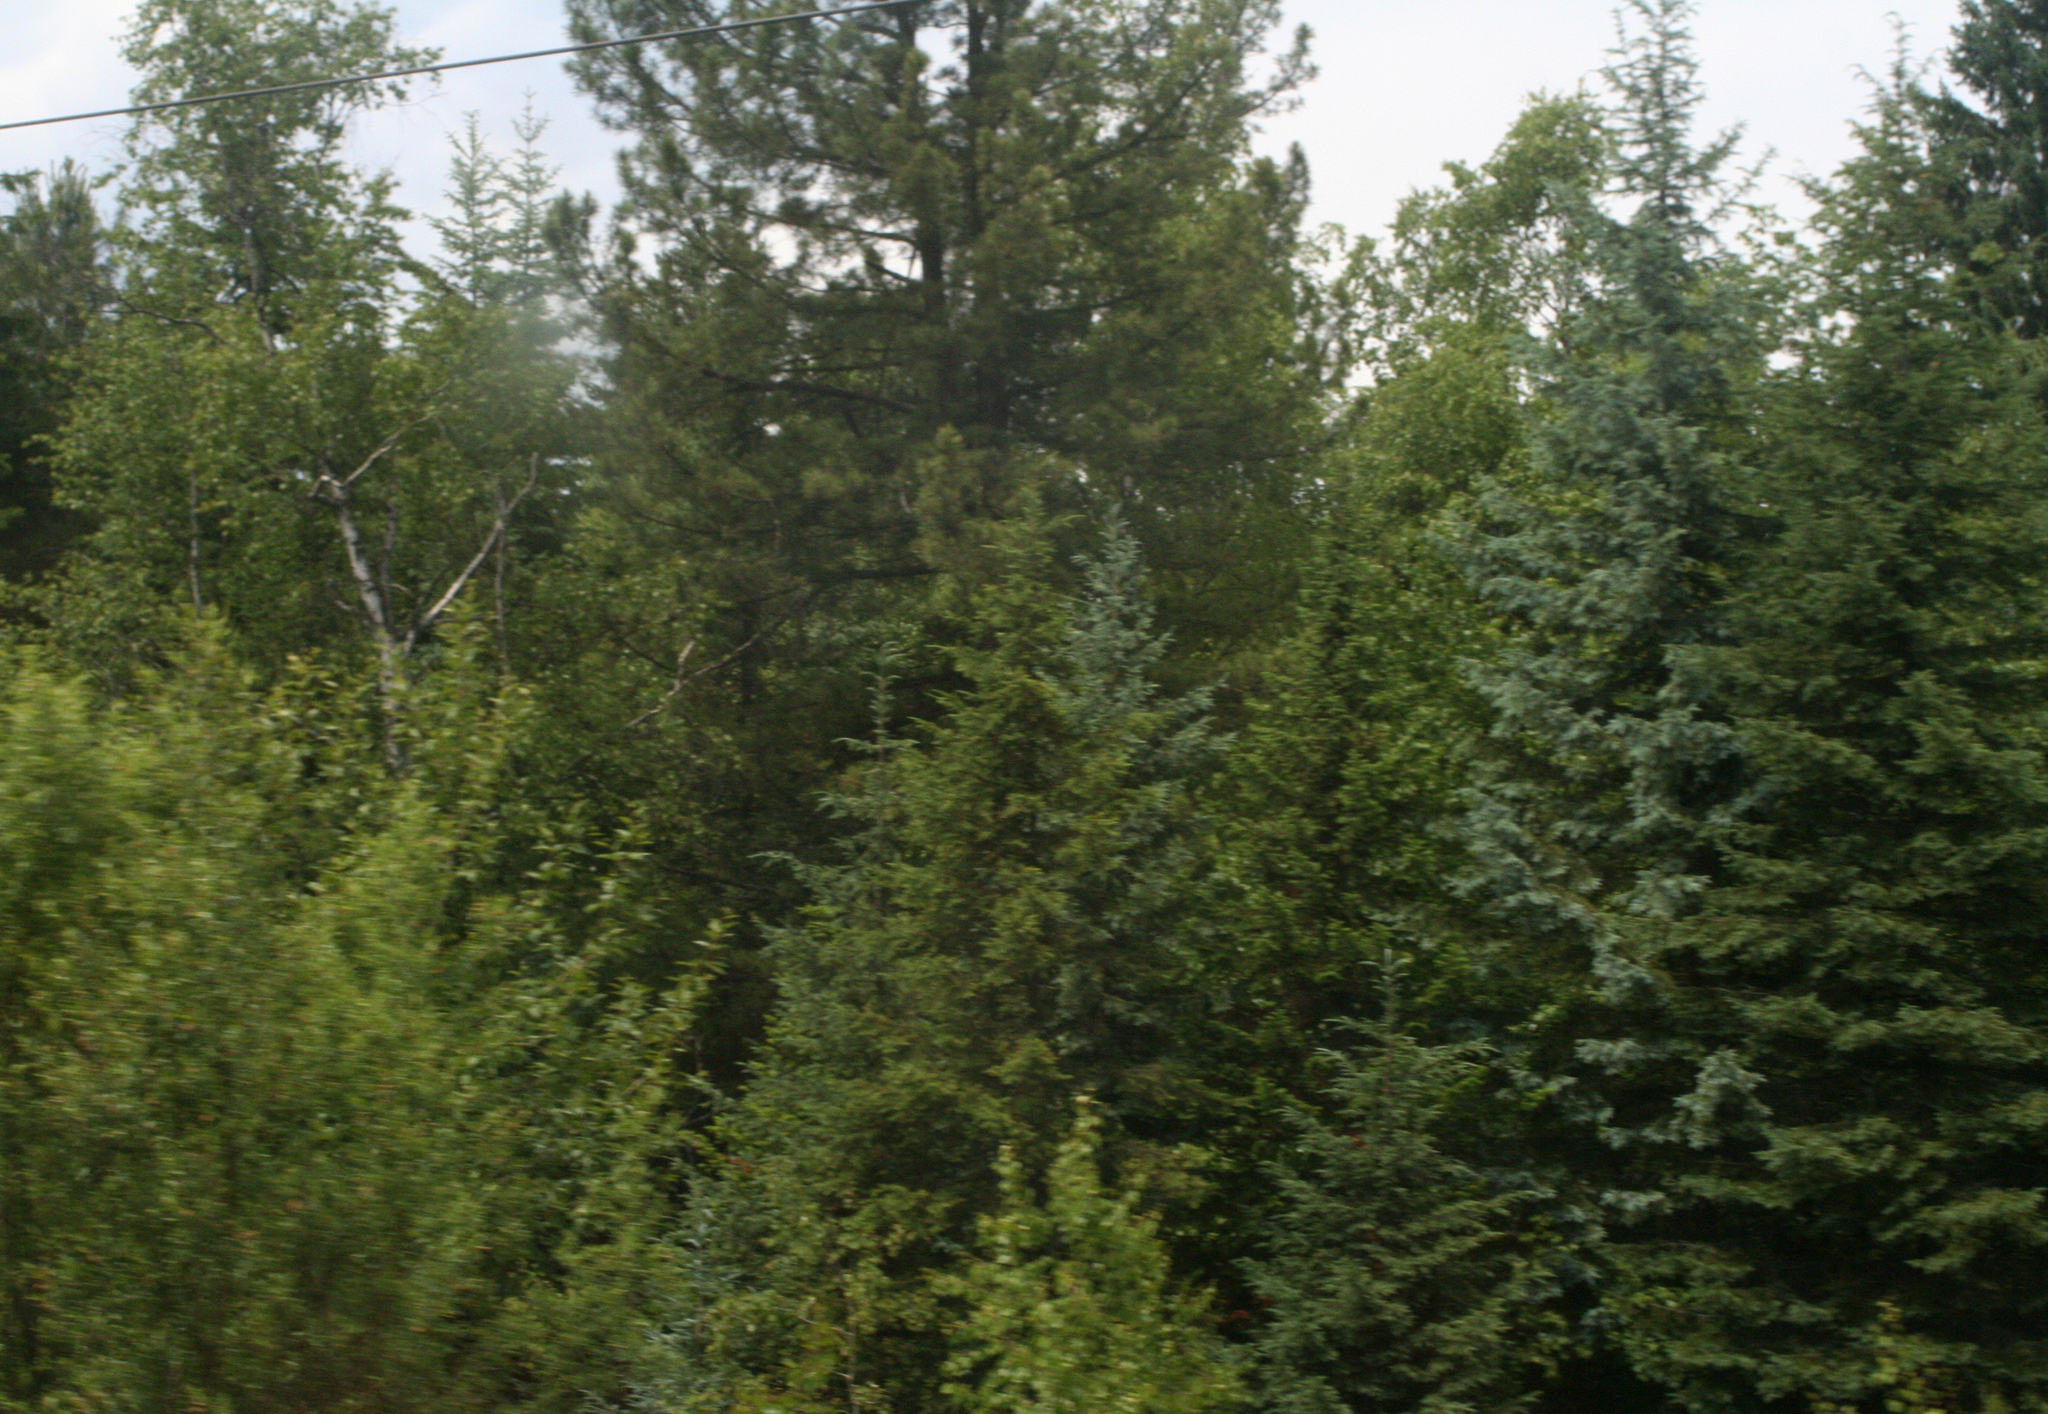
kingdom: Plantae
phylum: Tracheophyta
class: Pinopsida
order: Pinales
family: Pinaceae
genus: Picea
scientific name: Picea obovata
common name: Siberian spruce
